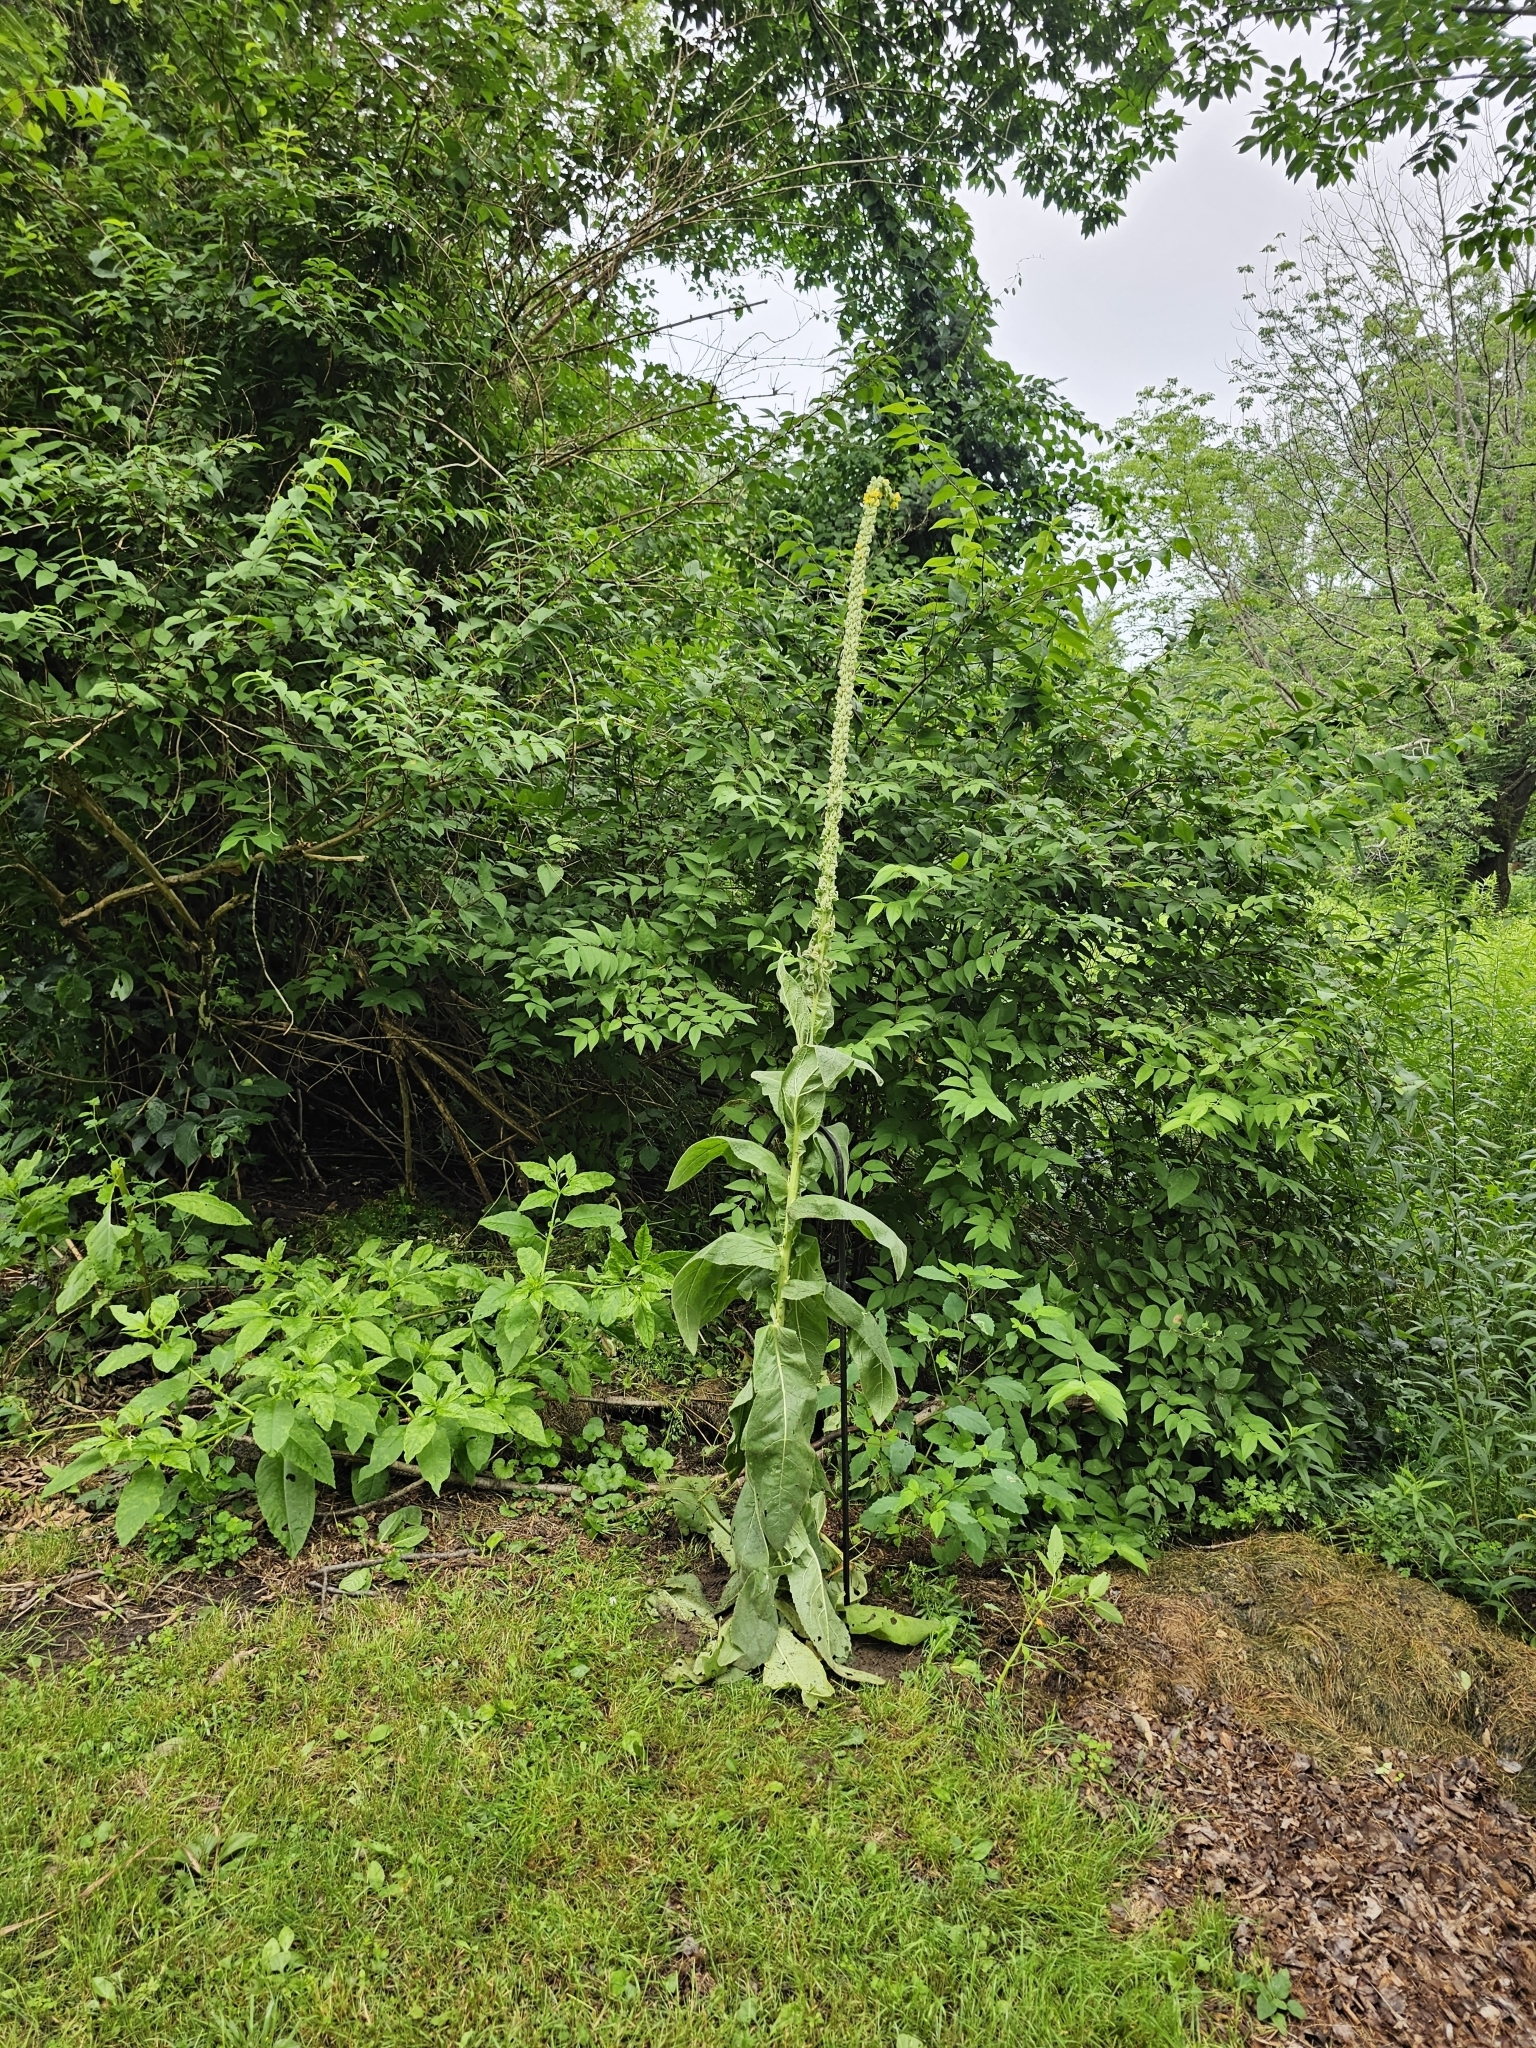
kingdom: Plantae
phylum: Tracheophyta
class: Magnoliopsida
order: Lamiales
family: Scrophulariaceae
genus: Verbascum
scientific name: Verbascum thapsus
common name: Common mullein
